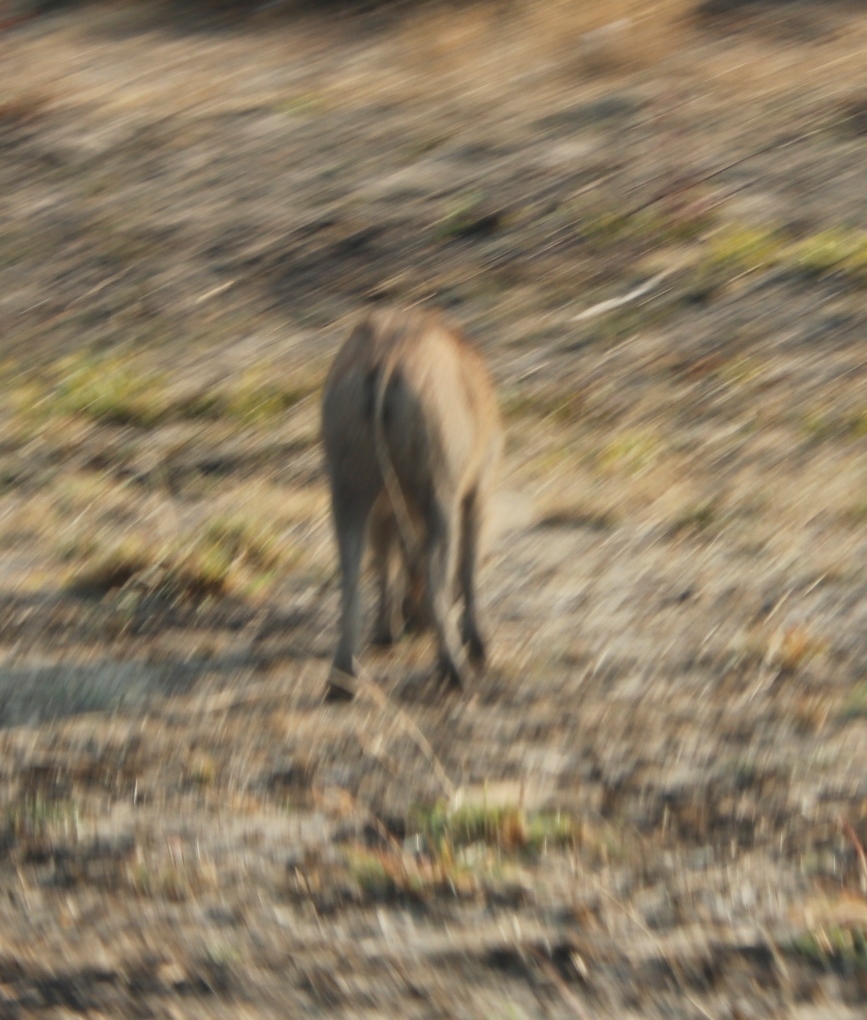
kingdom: Animalia
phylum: Chordata
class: Mammalia
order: Artiodactyla
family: Suidae
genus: Phacochoerus
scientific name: Phacochoerus africanus
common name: Common warthog
